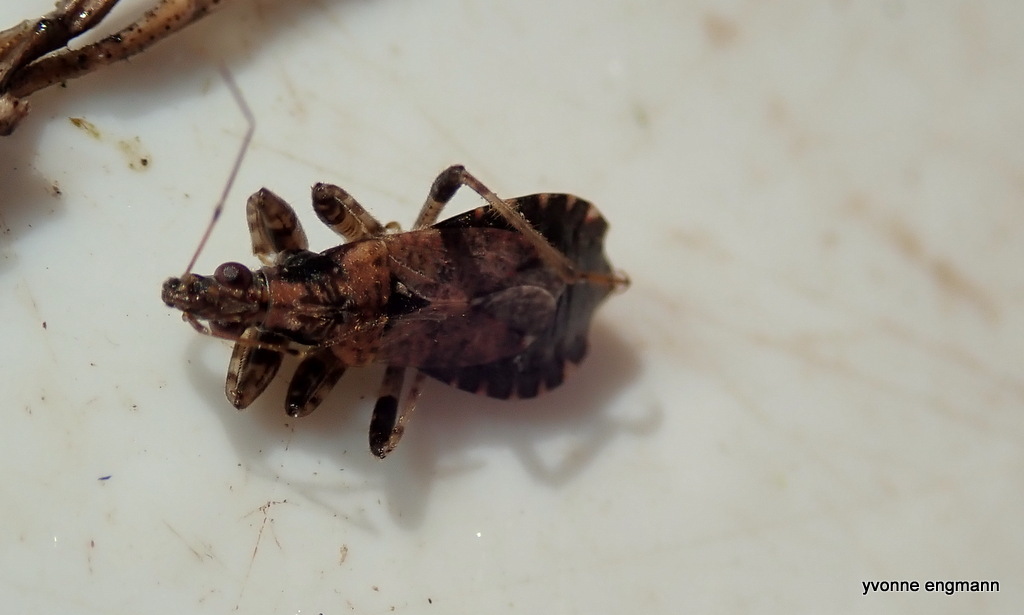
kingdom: Animalia
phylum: Arthropoda
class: Insecta
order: Hemiptera
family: Nabidae
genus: Himacerus
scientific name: Himacerus mirmicoides
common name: Ant damsel bug
